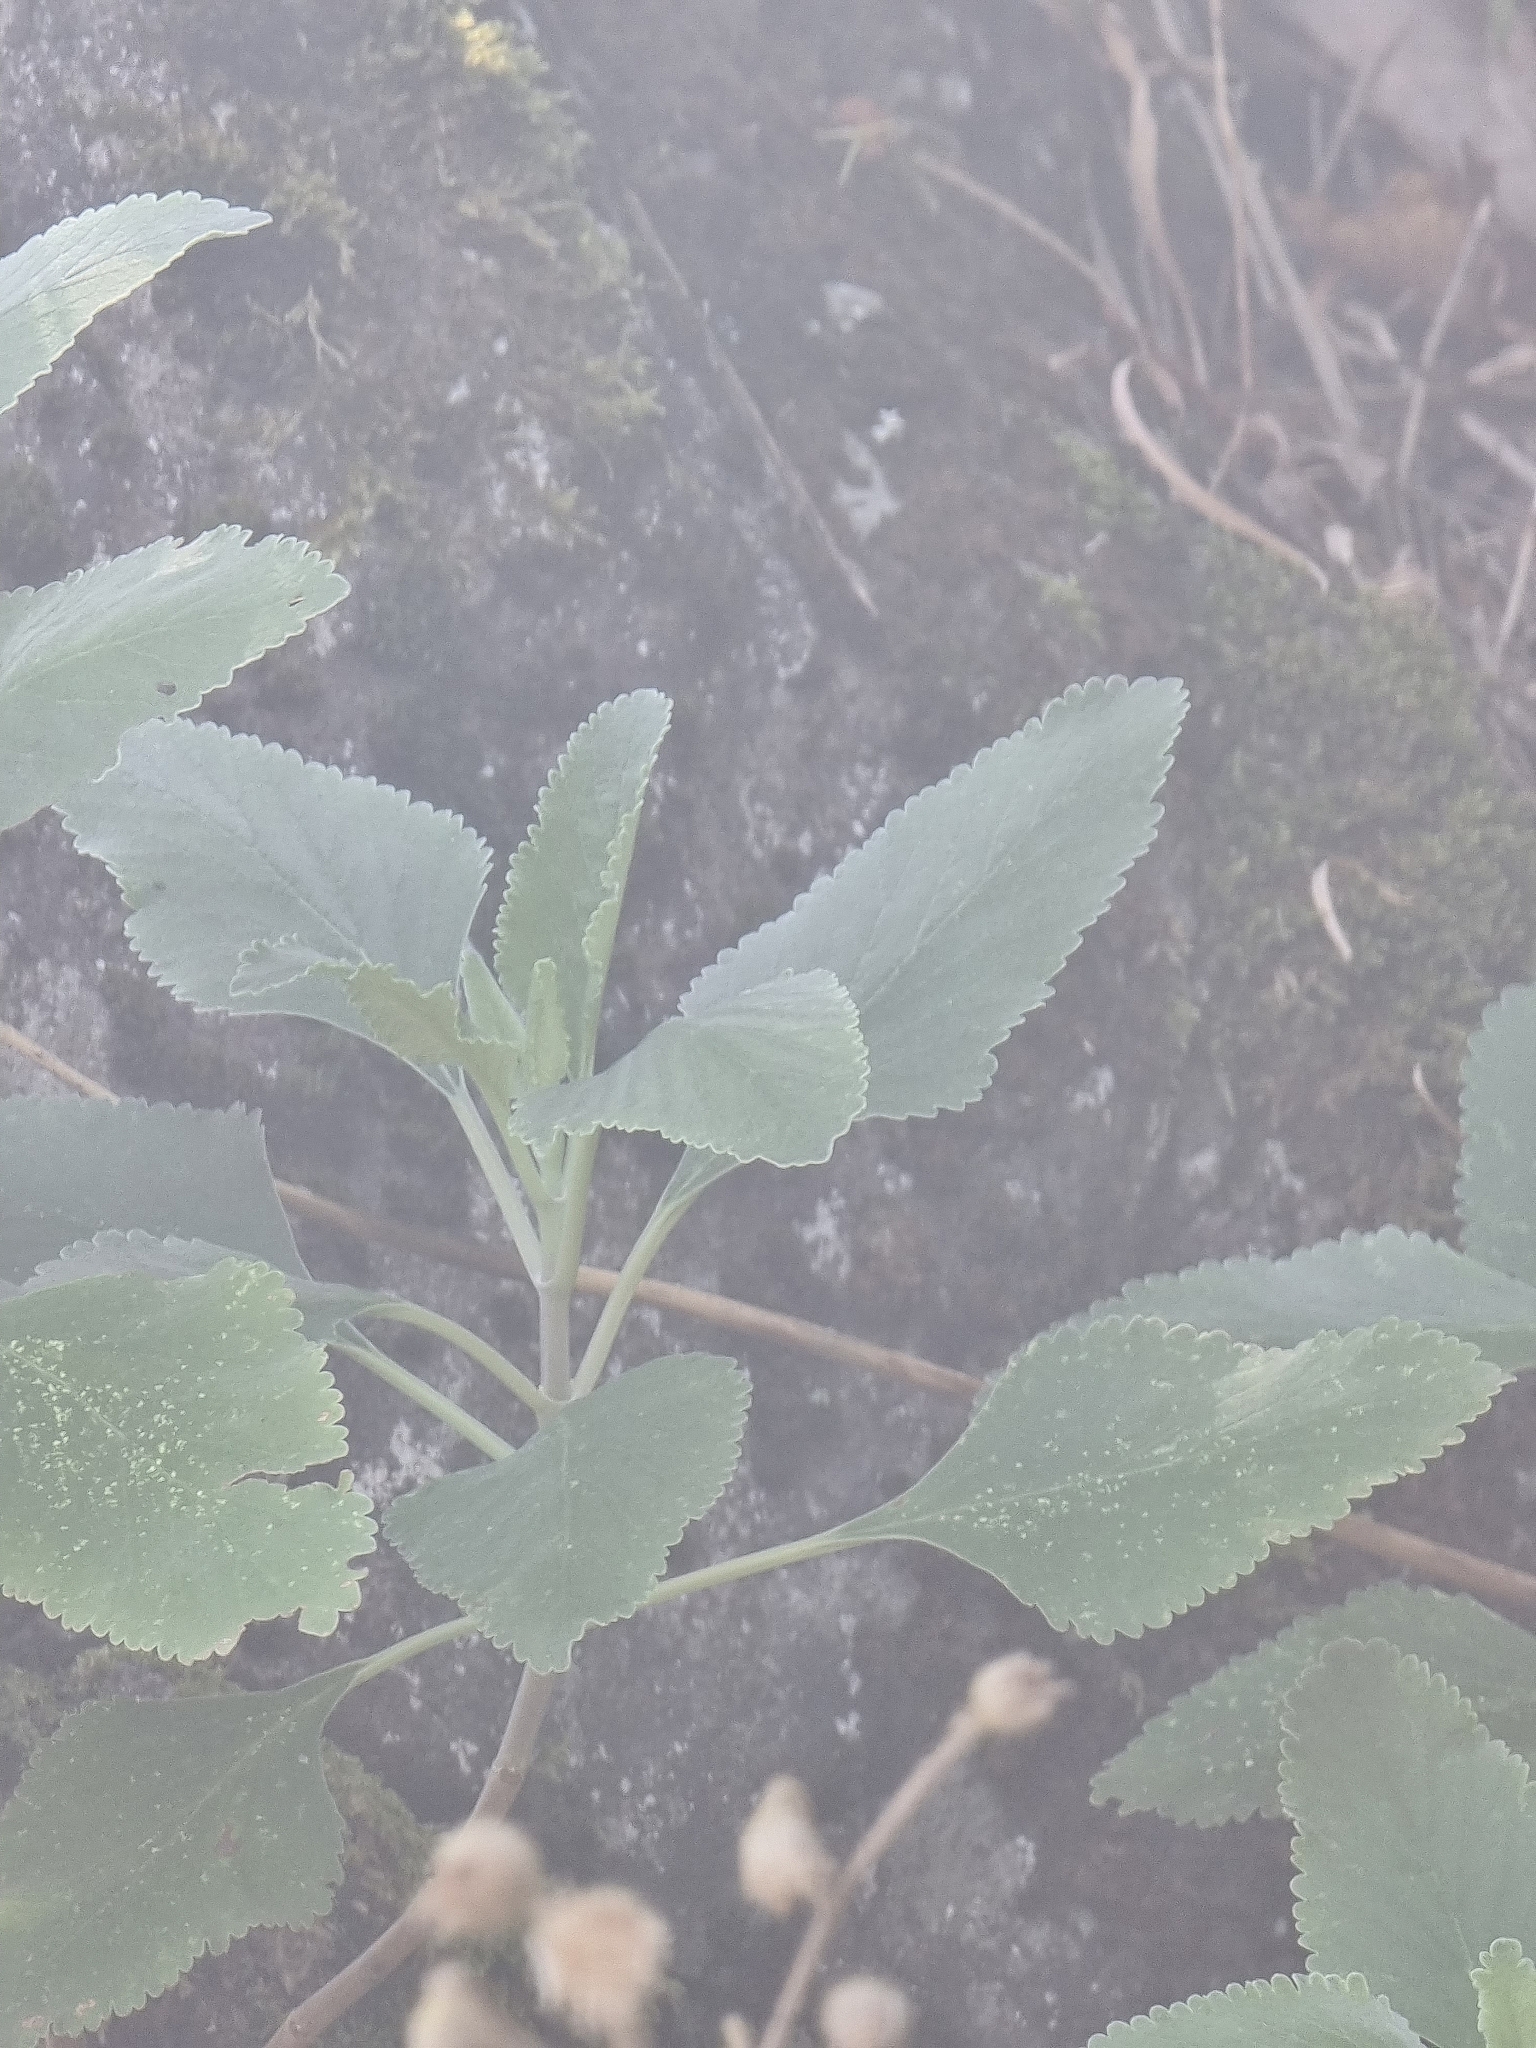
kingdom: Plantae
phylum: Tracheophyta
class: Magnoliopsida
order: Lamiales
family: Lamiaceae
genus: Teucrium
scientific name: Teucrium betonicum
